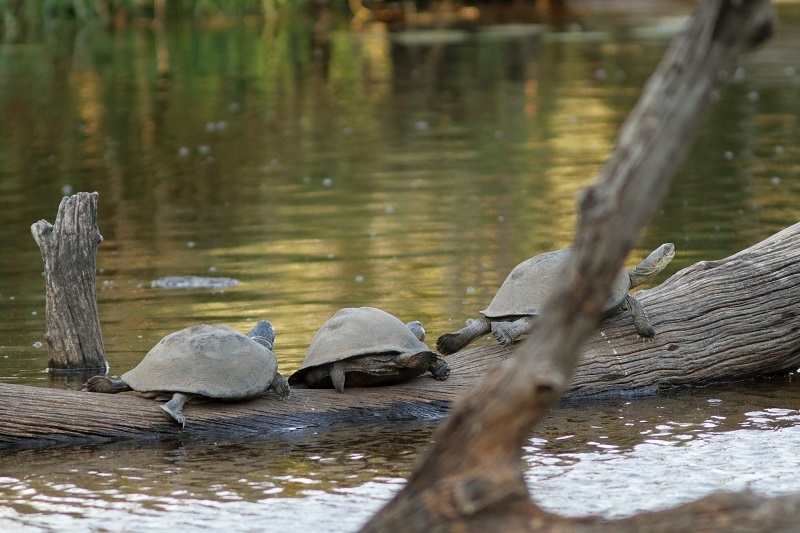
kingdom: Animalia
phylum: Chordata
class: Testudines
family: Pelomedusidae
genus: Pelusios
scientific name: Pelusios sinuatus
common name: Serrated hinged terrapin
